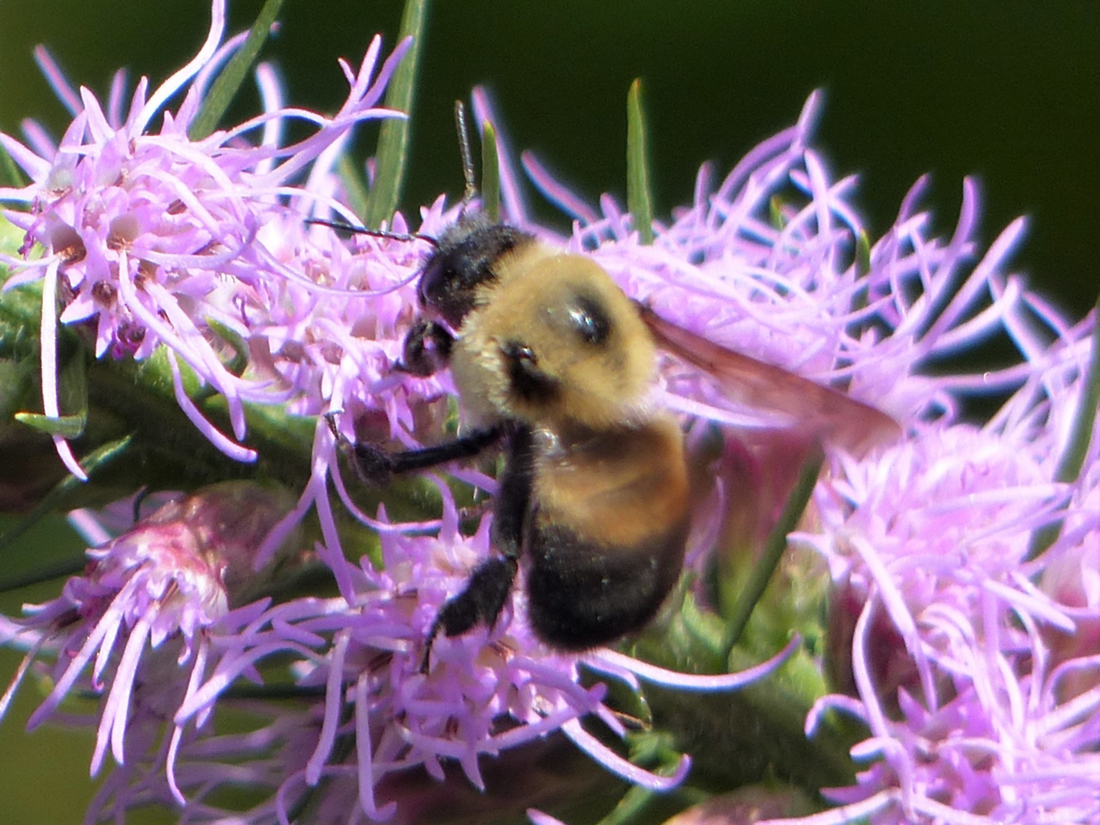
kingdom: Animalia
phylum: Arthropoda
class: Insecta
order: Hymenoptera
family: Apidae
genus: Bombus
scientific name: Bombus griseocollis
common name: Brown-belted bumble bee
